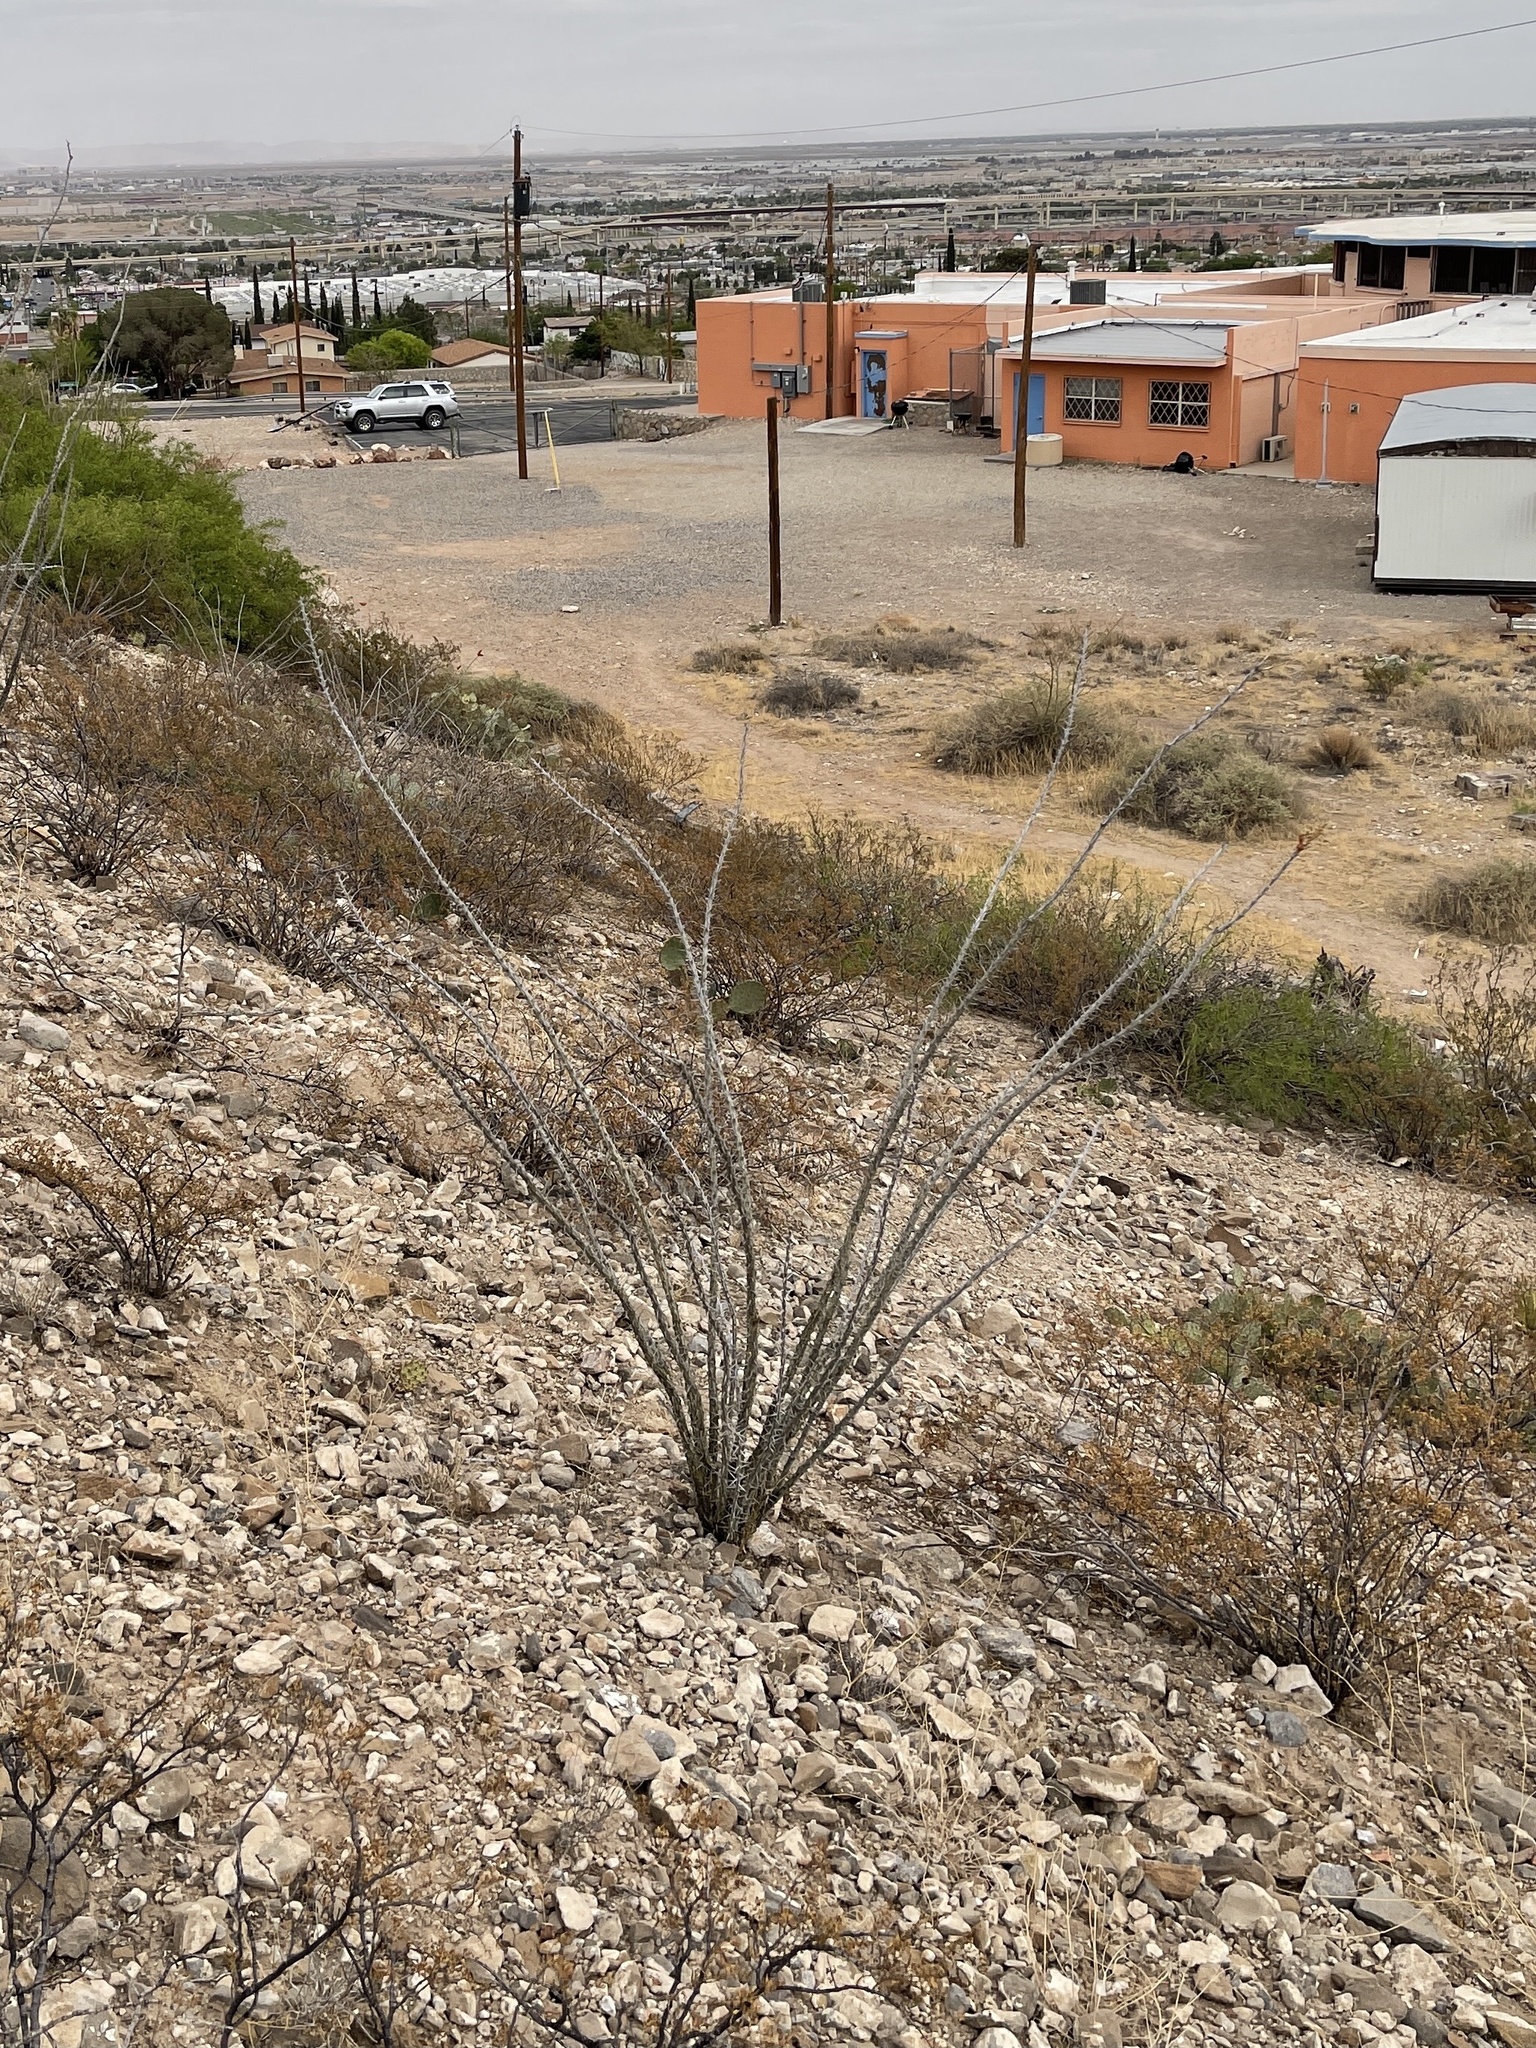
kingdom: Plantae
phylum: Tracheophyta
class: Magnoliopsida
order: Ericales
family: Fouquieriaceae
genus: Fouquieria
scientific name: Fouquieria splendens
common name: Vine-cactus
